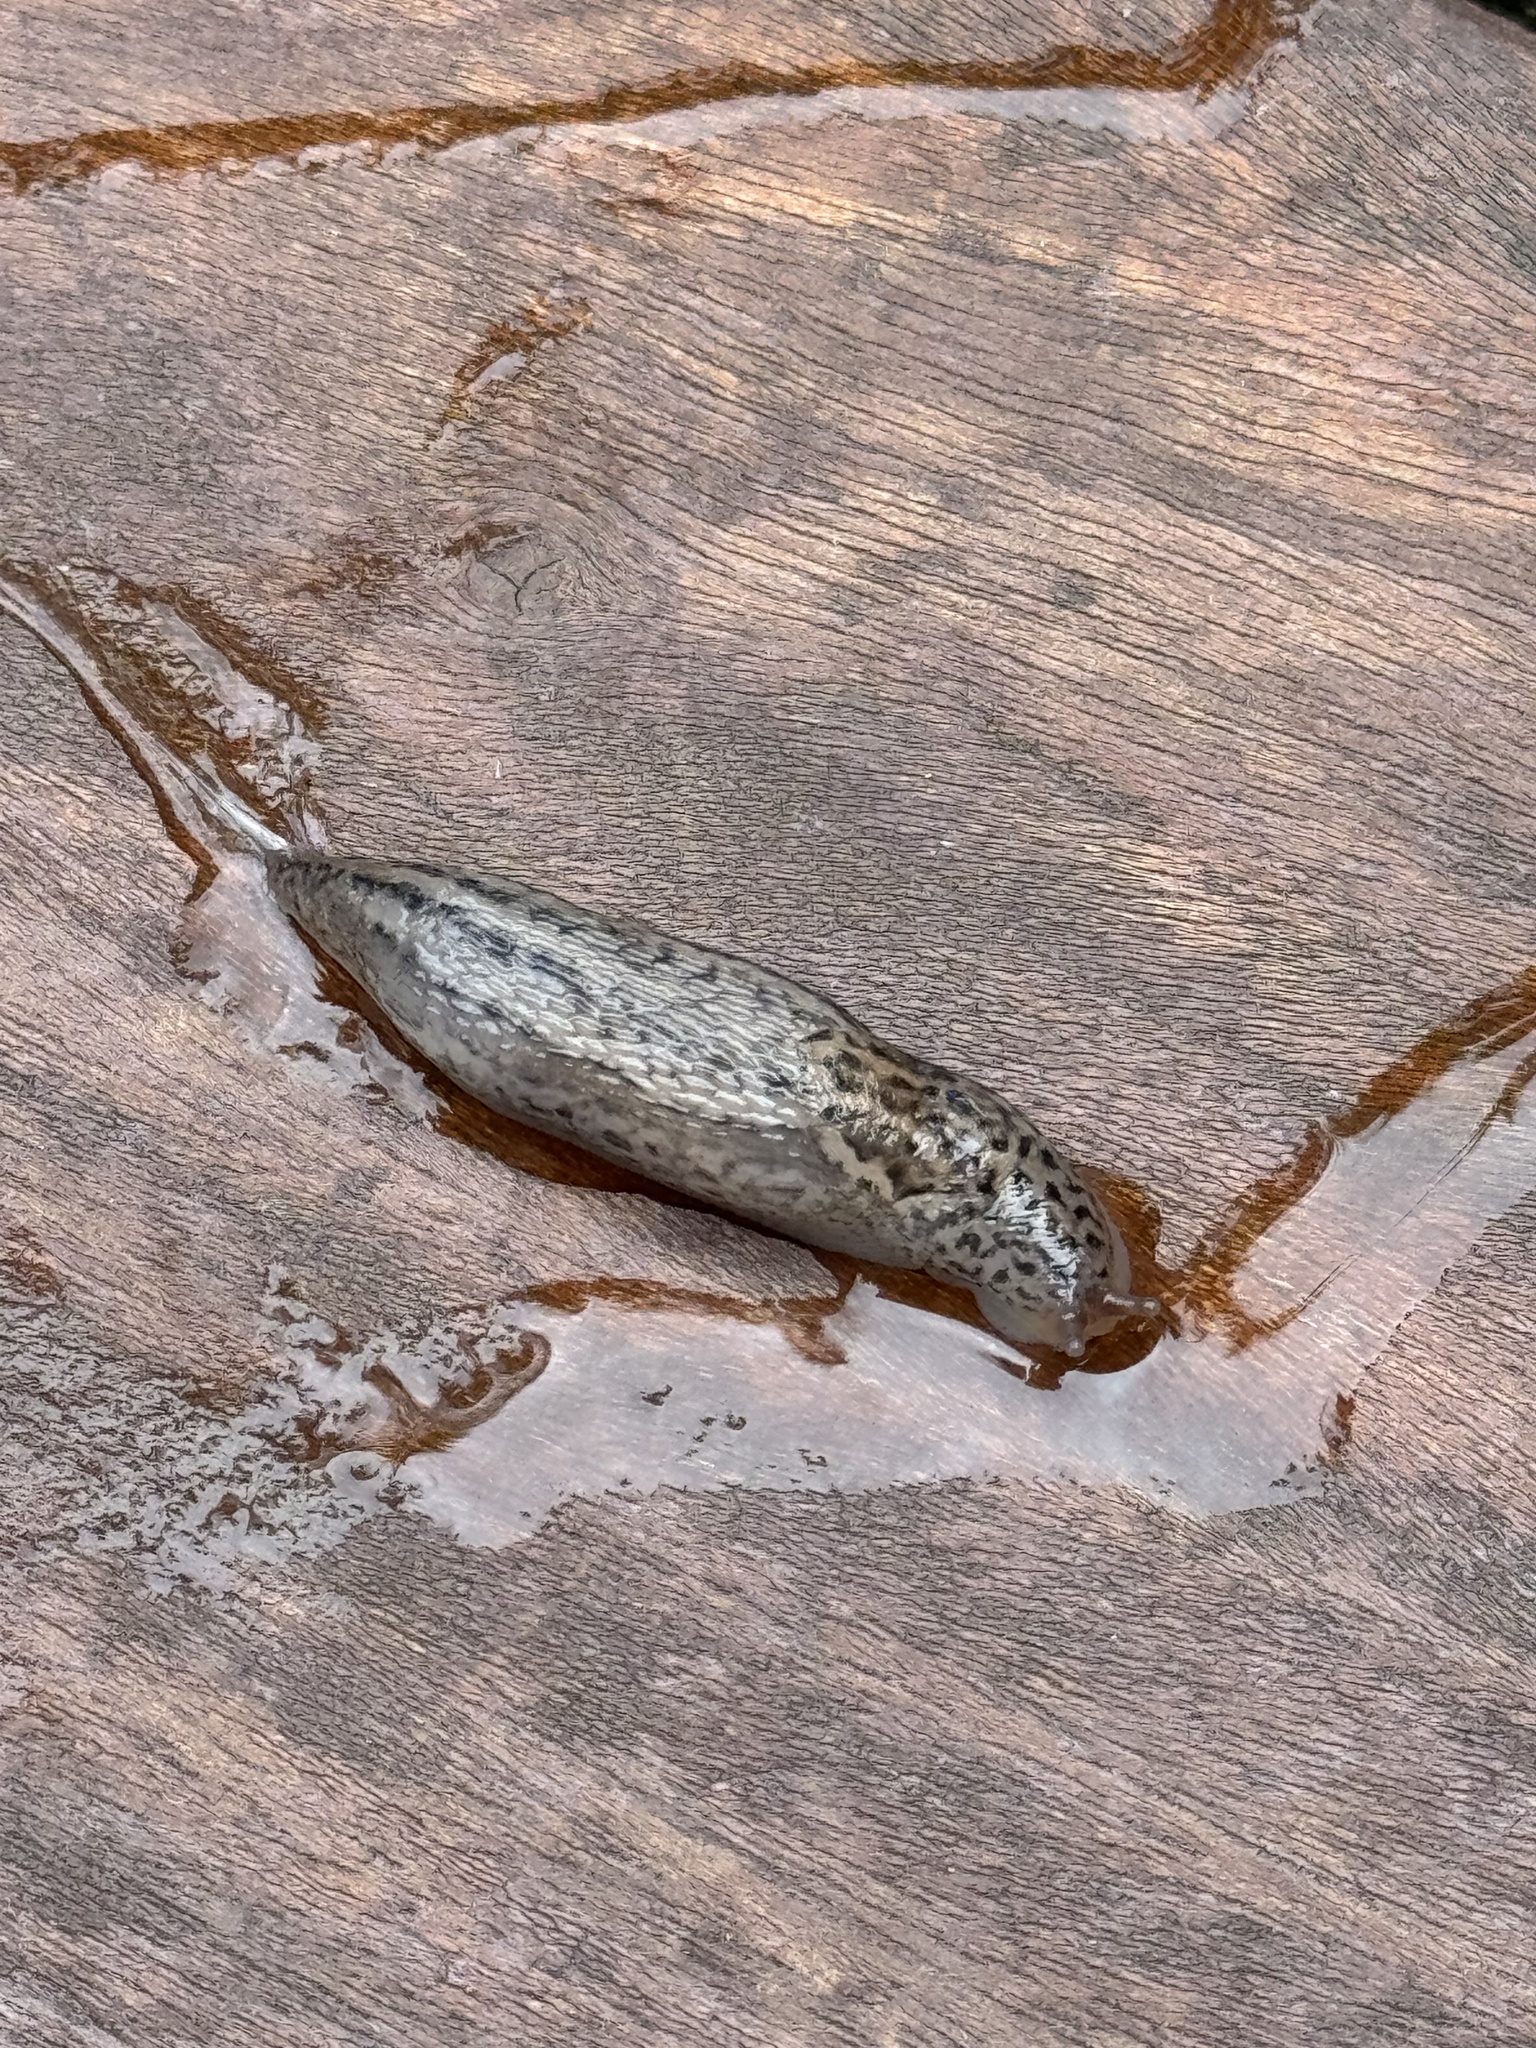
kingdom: Animalia
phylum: Mollusca
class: Gastropoda
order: Stylommatophora
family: Limacidae
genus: Limax
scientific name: Limax maximus
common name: Great grey slug
